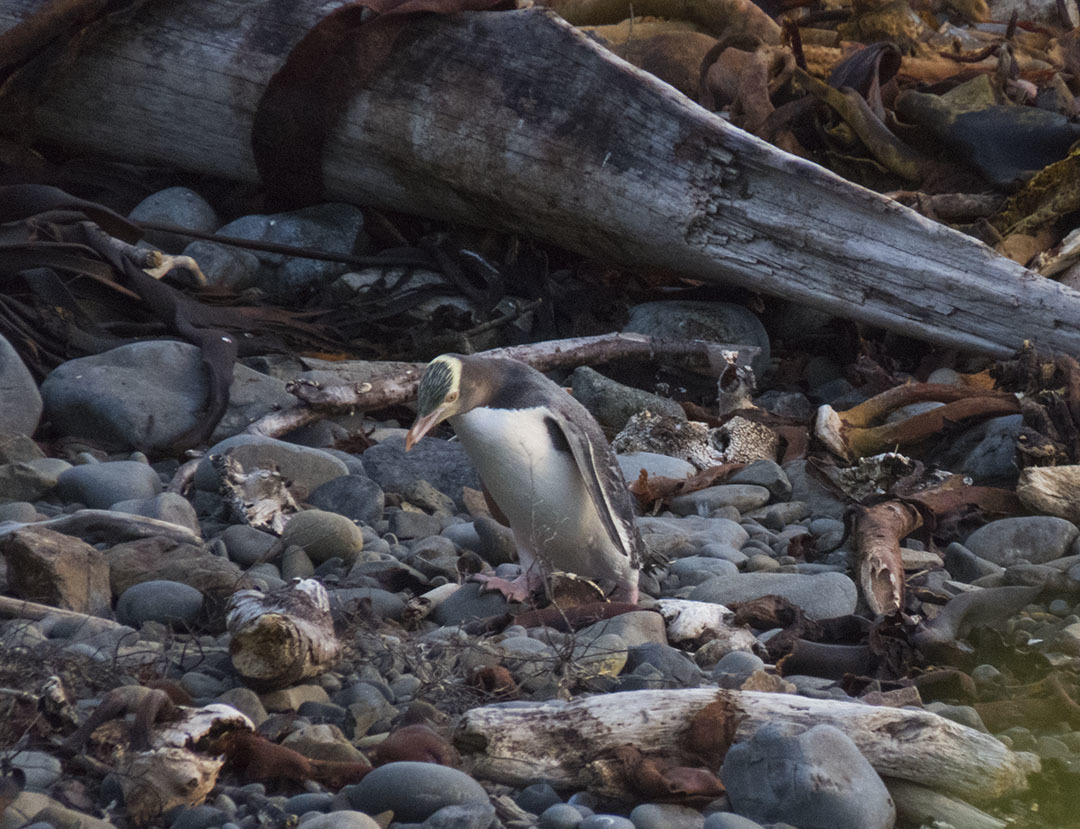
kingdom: Animalia
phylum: Chordata
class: Aves
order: Sphenisciformes
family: Spheniscidae
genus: Megadyptes
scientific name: Megadyptes antipodes
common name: Yellow-eyed penguin
